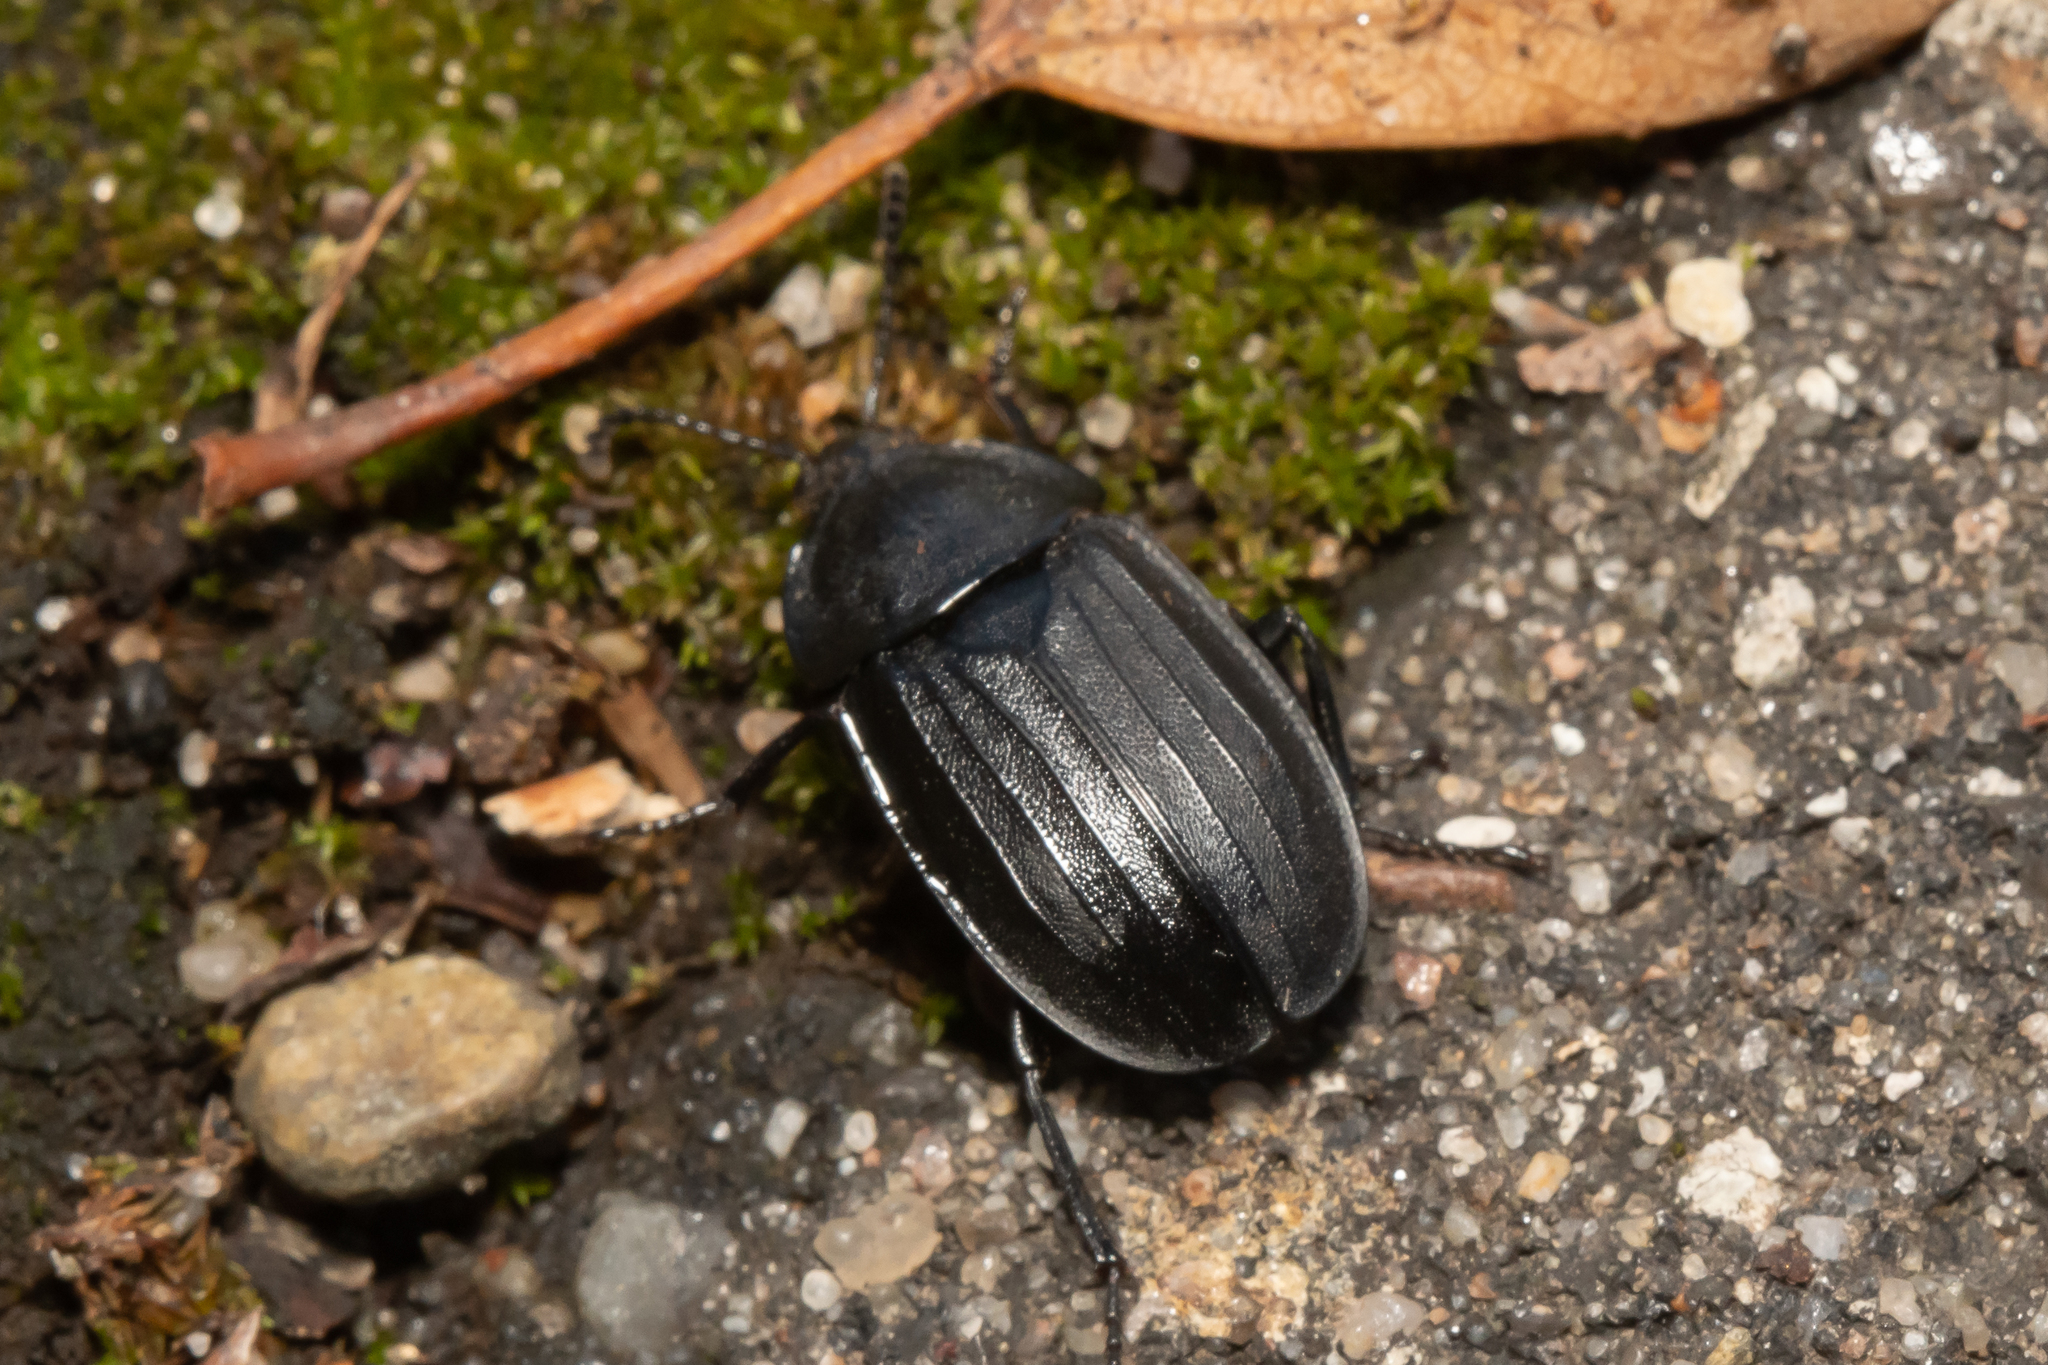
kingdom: Animalia
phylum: Arthropoda
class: Insecta
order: Coleoptera
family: Staphylinidae
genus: Silpha
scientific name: Silpha tristis
